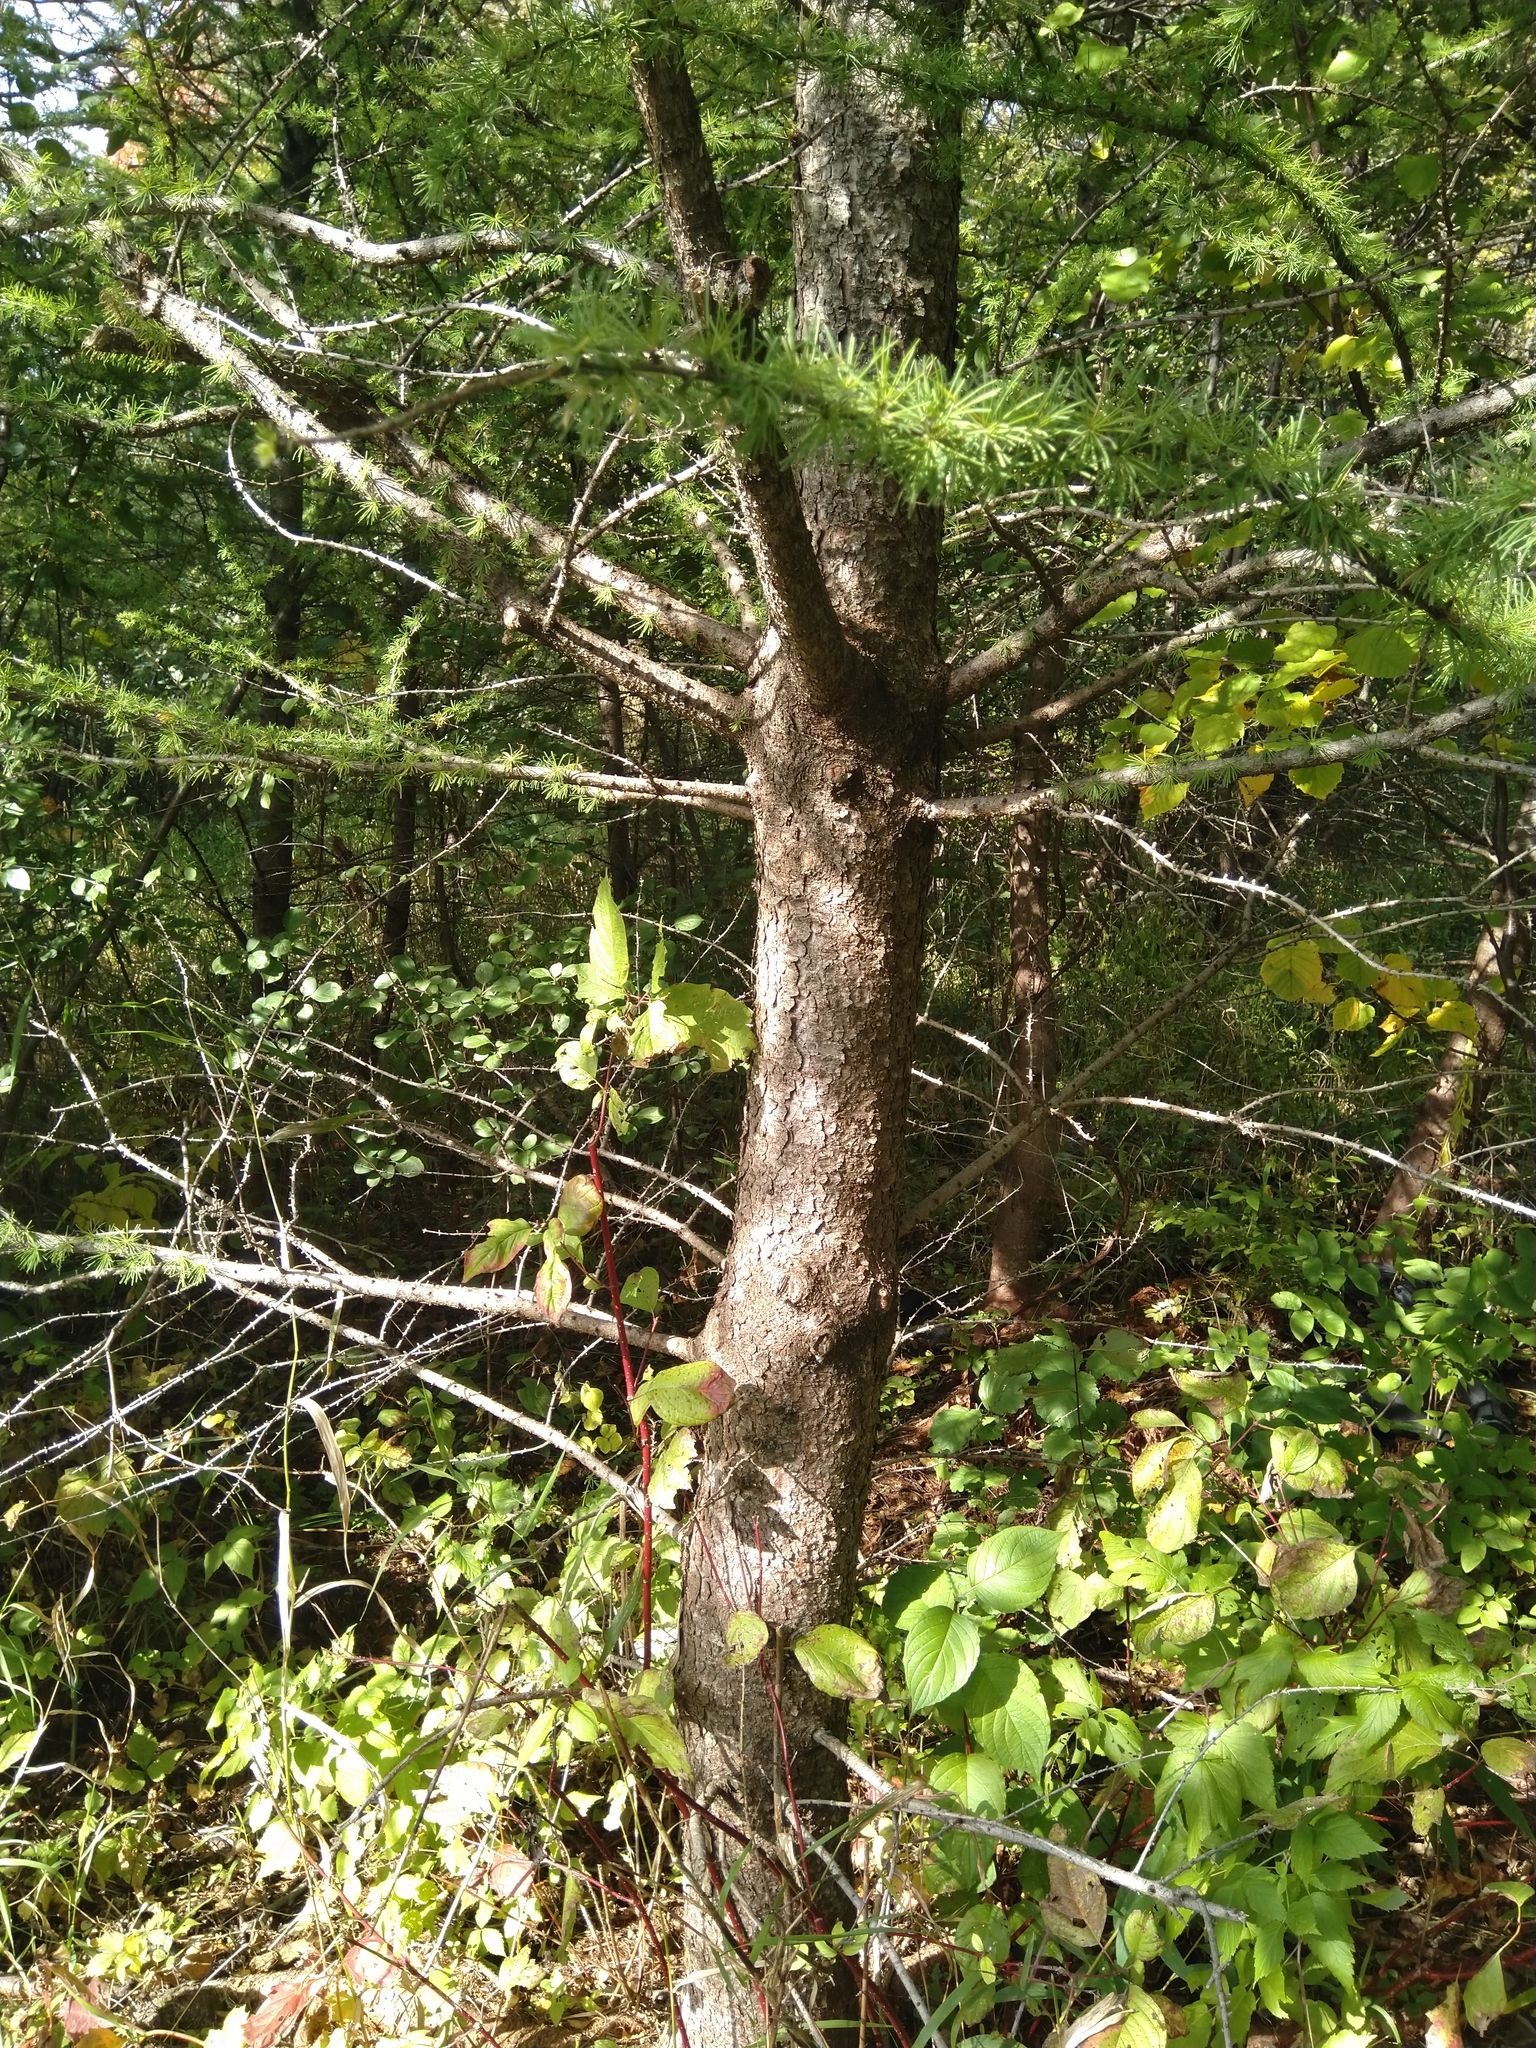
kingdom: Plantae
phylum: Tracheophyta
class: Pinopsida
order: Pinales
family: Pinaceae
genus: Larix
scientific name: Larix laricina
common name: American larch
